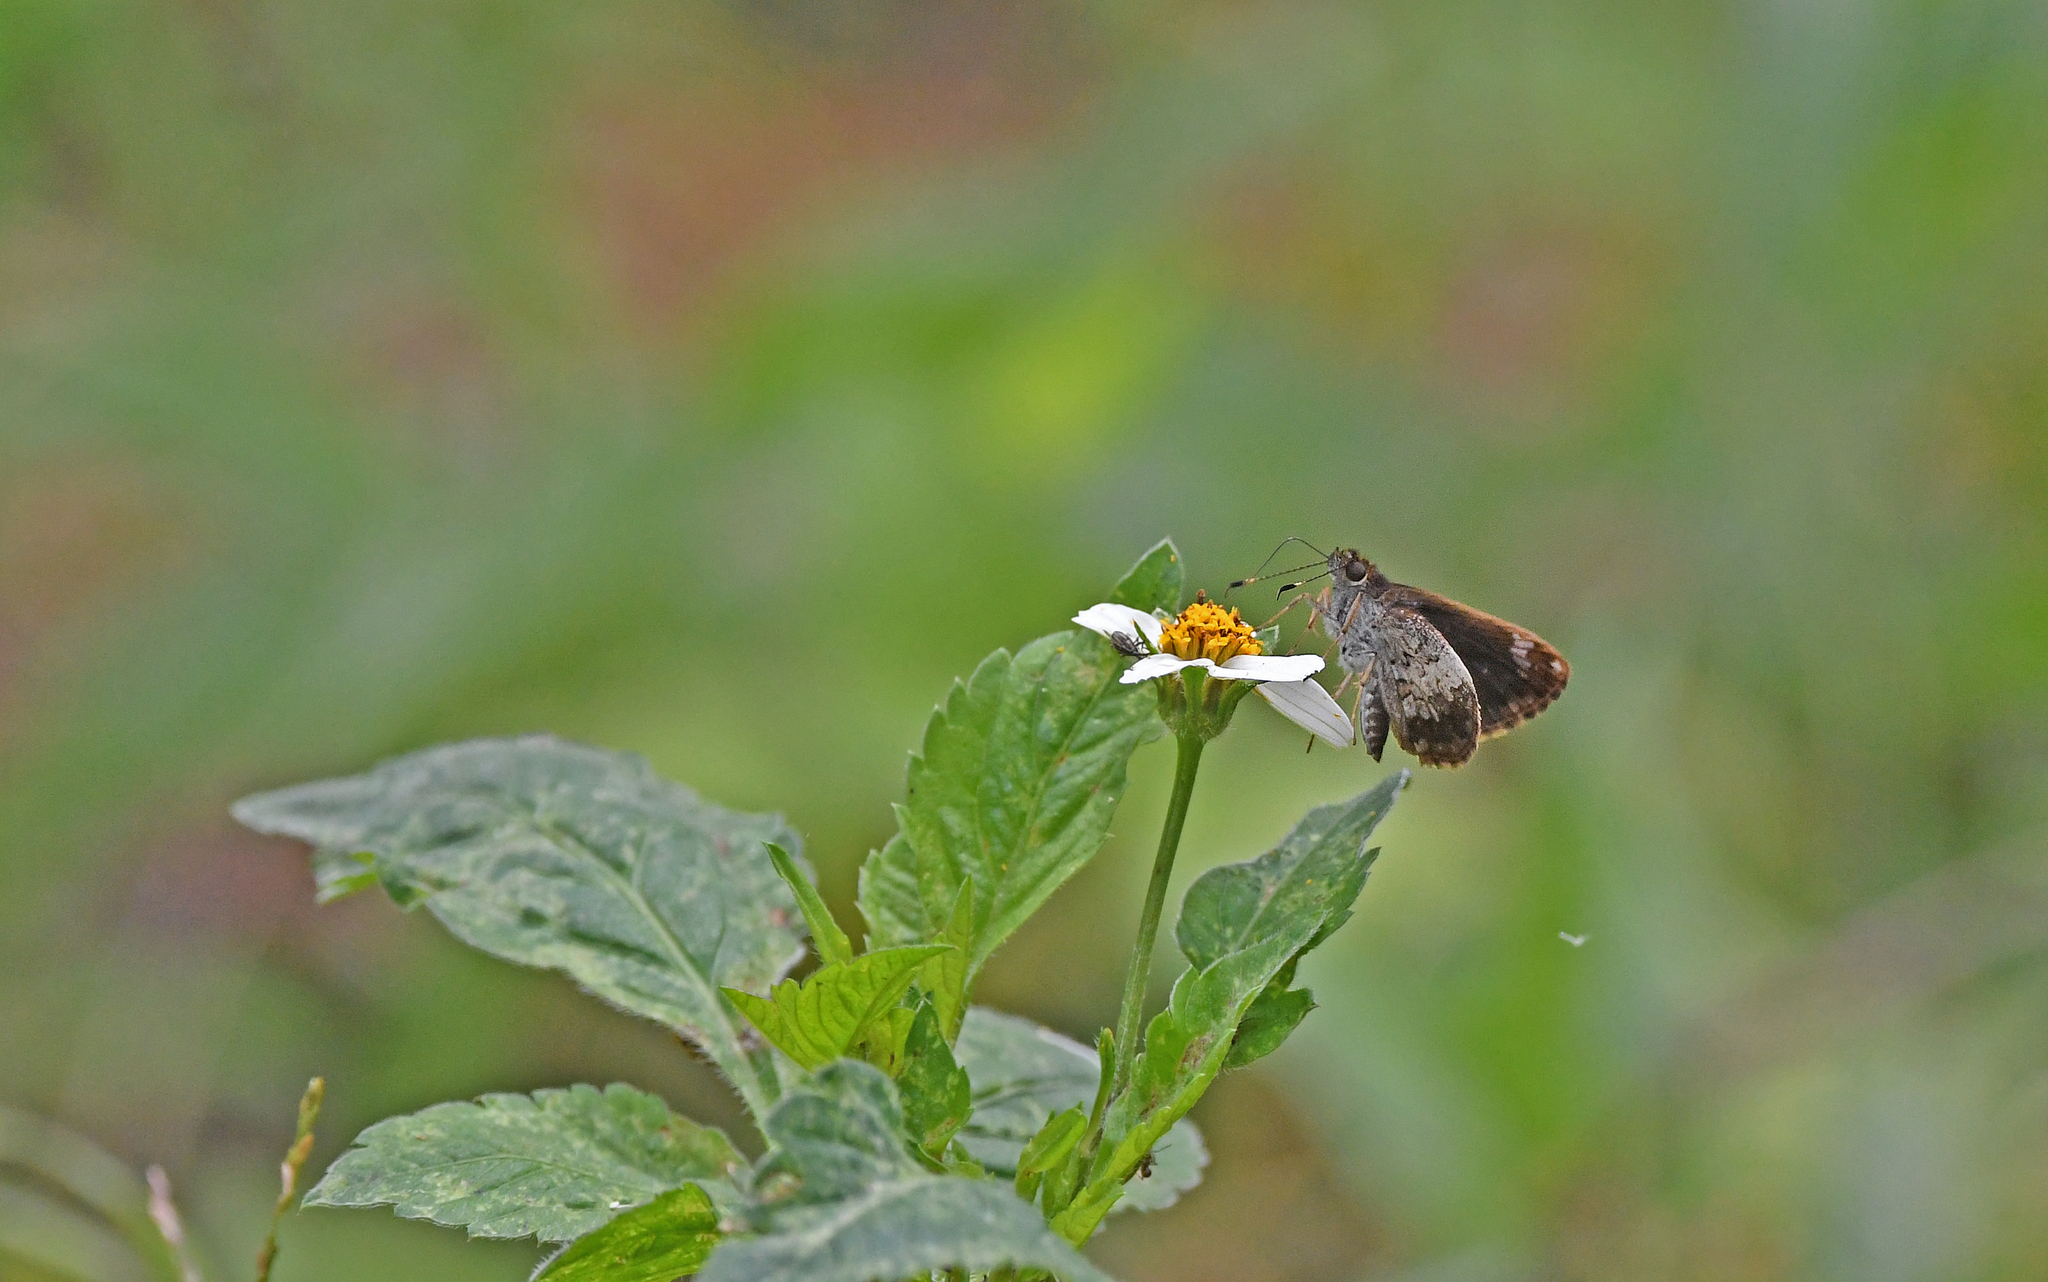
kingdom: Animalia
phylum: Arthropoda
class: Insecta
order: Lepidoptera
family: Hesperiidae
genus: Lucida
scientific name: Lucida lucia
